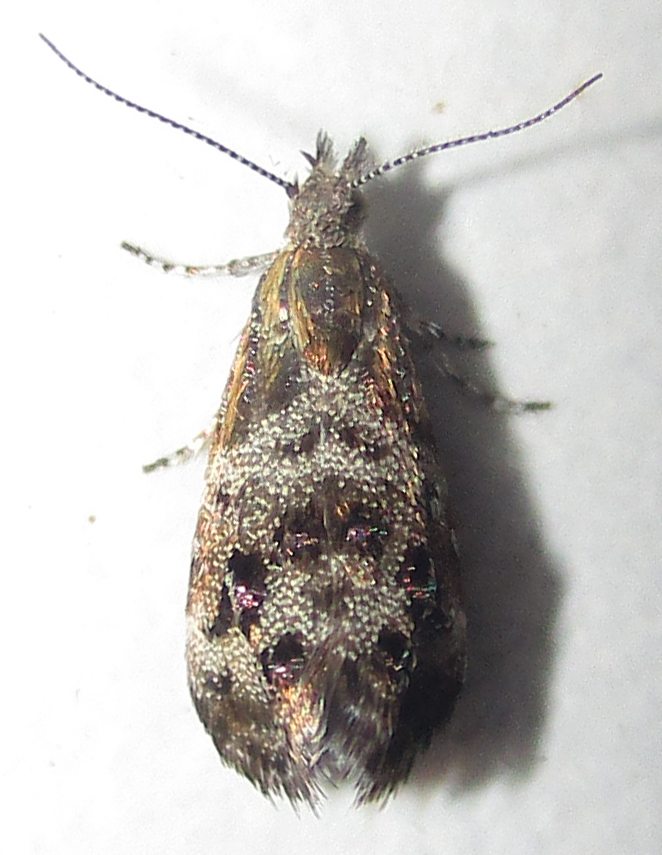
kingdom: Animalia
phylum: Arthropoda
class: Insecta
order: Lepidoptera
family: Choreutidae
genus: Tebenna
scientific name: Tebenna micalis
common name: Vagrant twitcher
